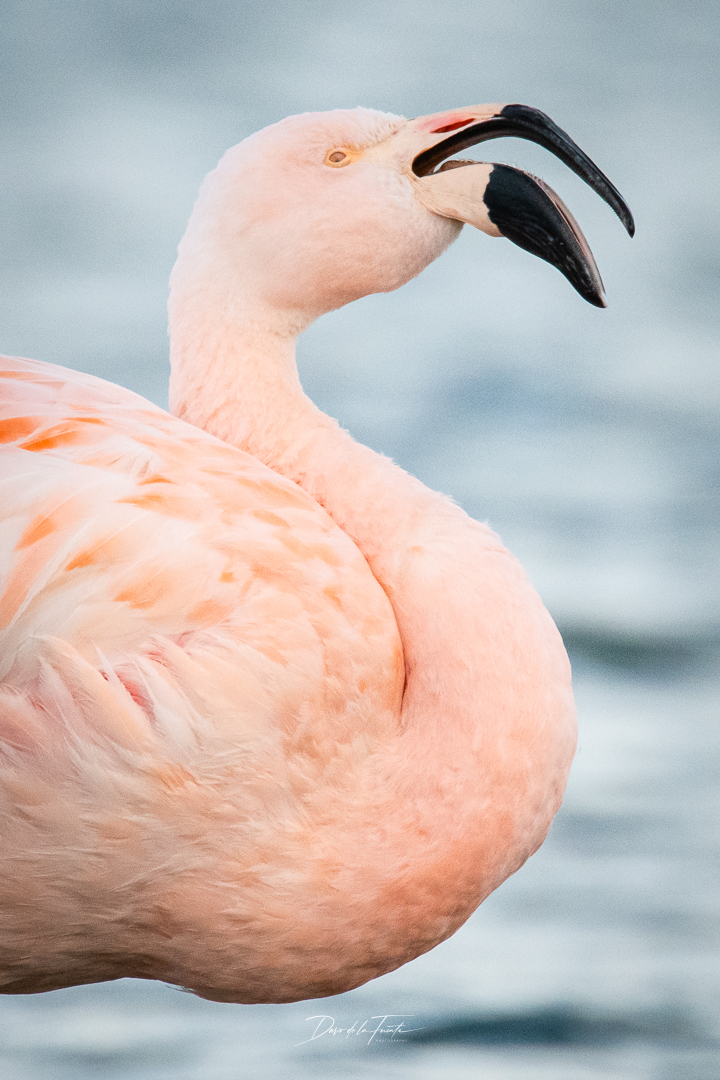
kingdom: Animalia
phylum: Chordata
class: Aves
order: Phoenicopteriformes
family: Phoenicopteridae
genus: Phoenicopterus
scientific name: Phoenicopterus chilensis
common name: Chilean flamingo
